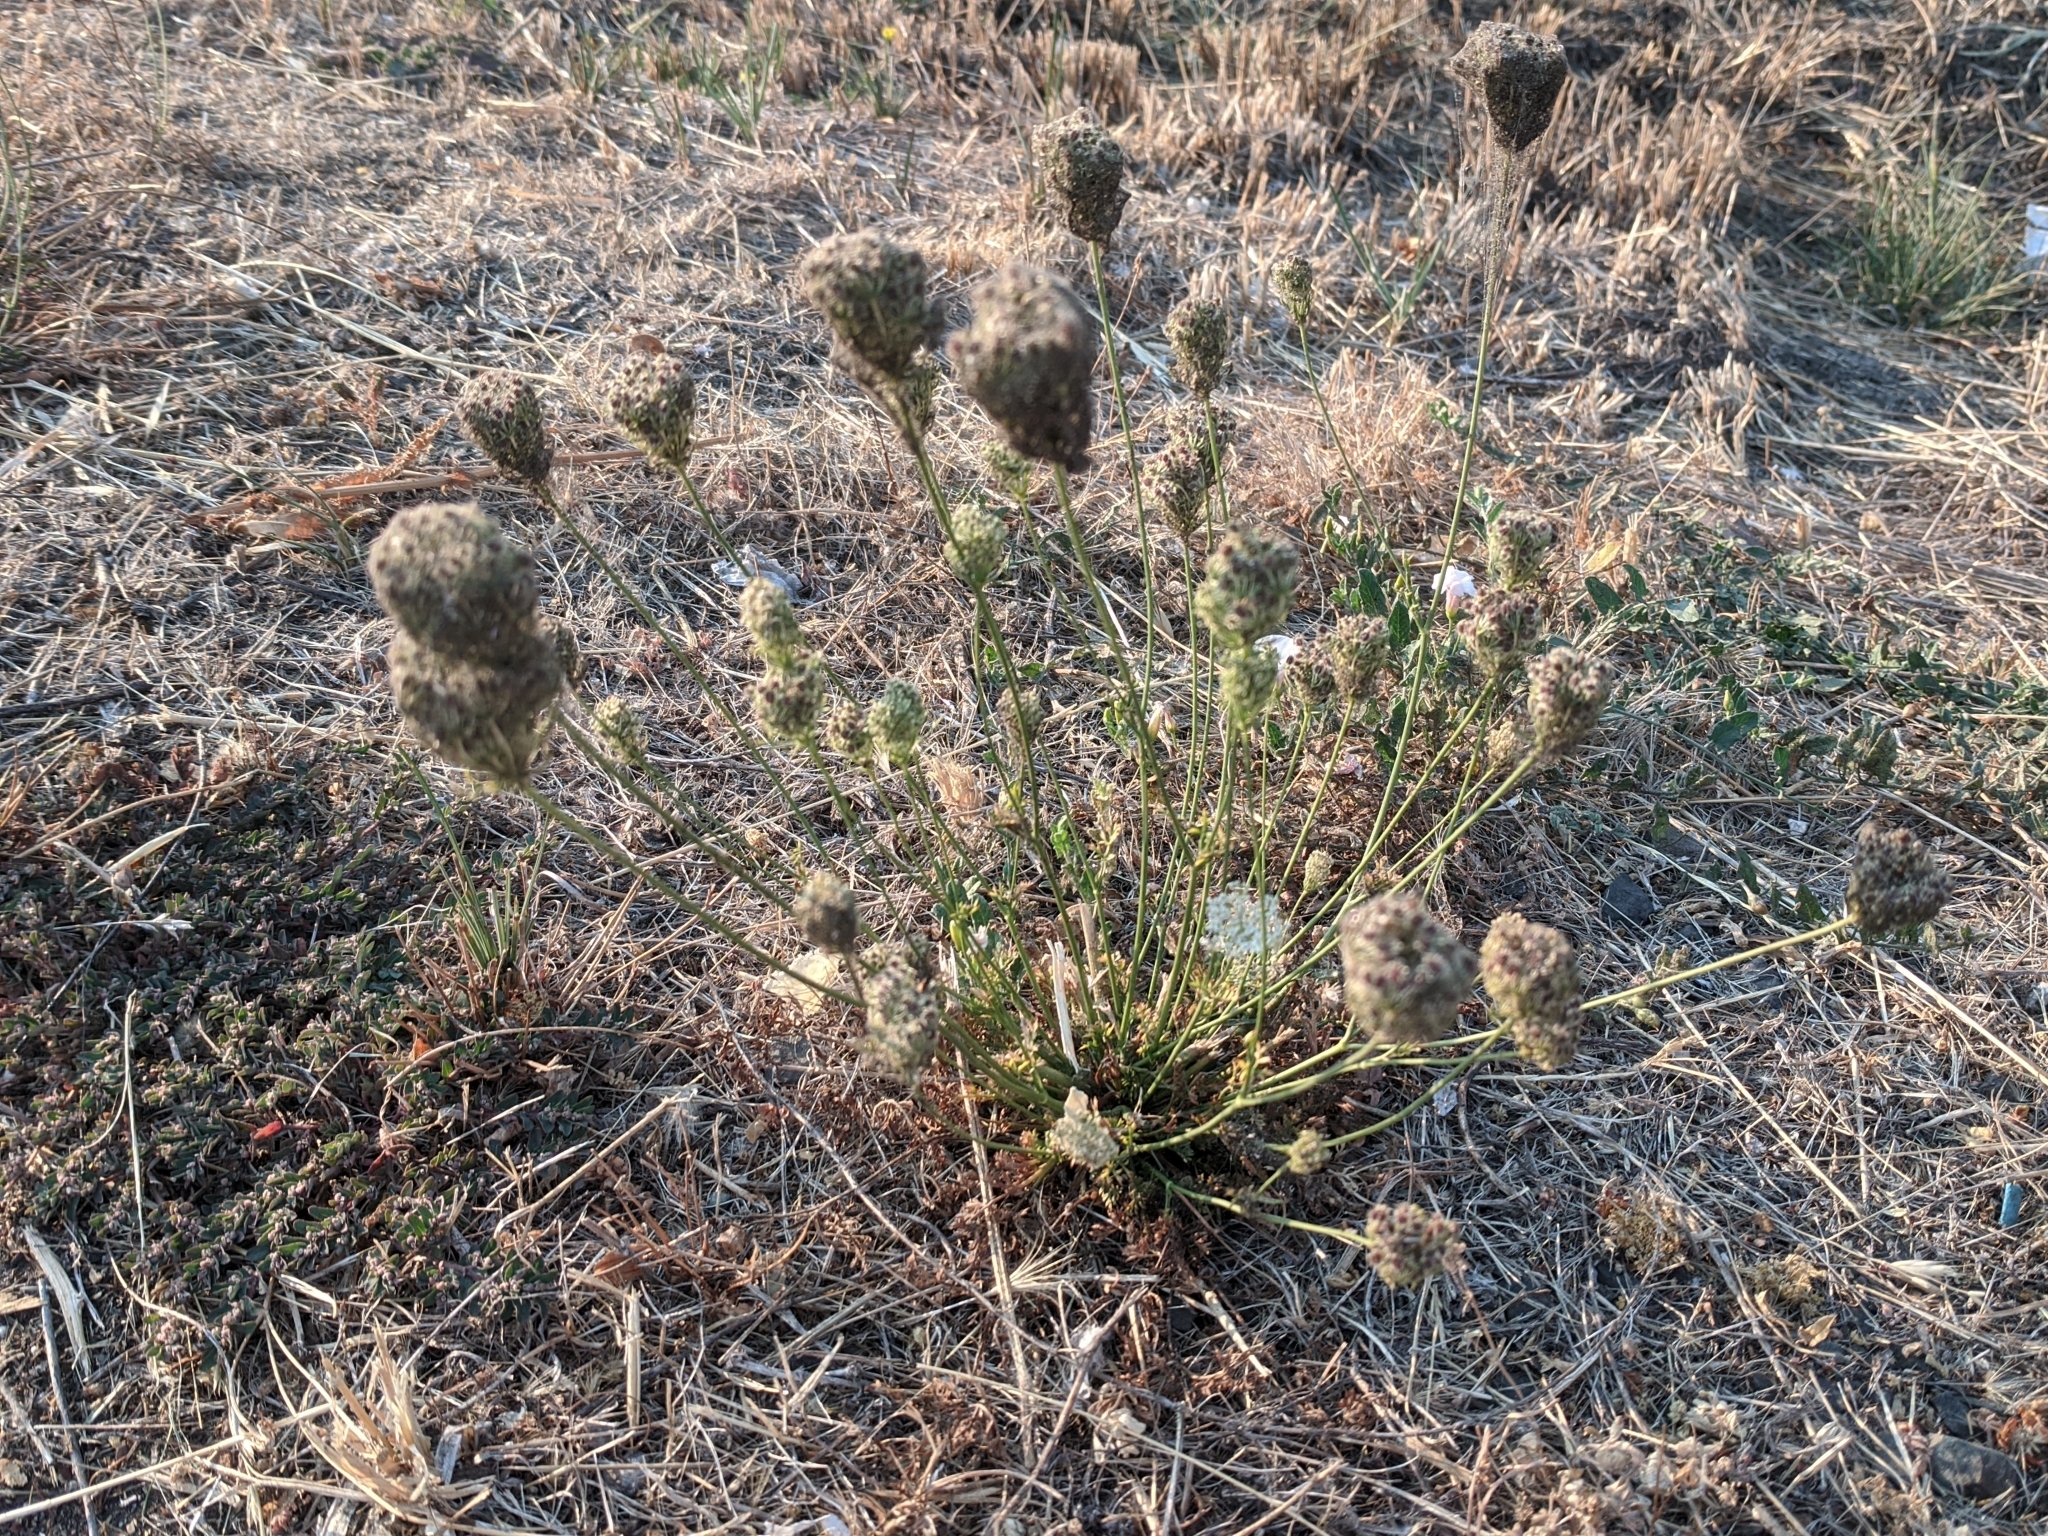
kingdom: Plantae
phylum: Tracheophyta
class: Magnoliopsida
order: Apiales
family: Apiaceae
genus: Daucus
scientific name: Daucus carota
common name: Wild carrot
